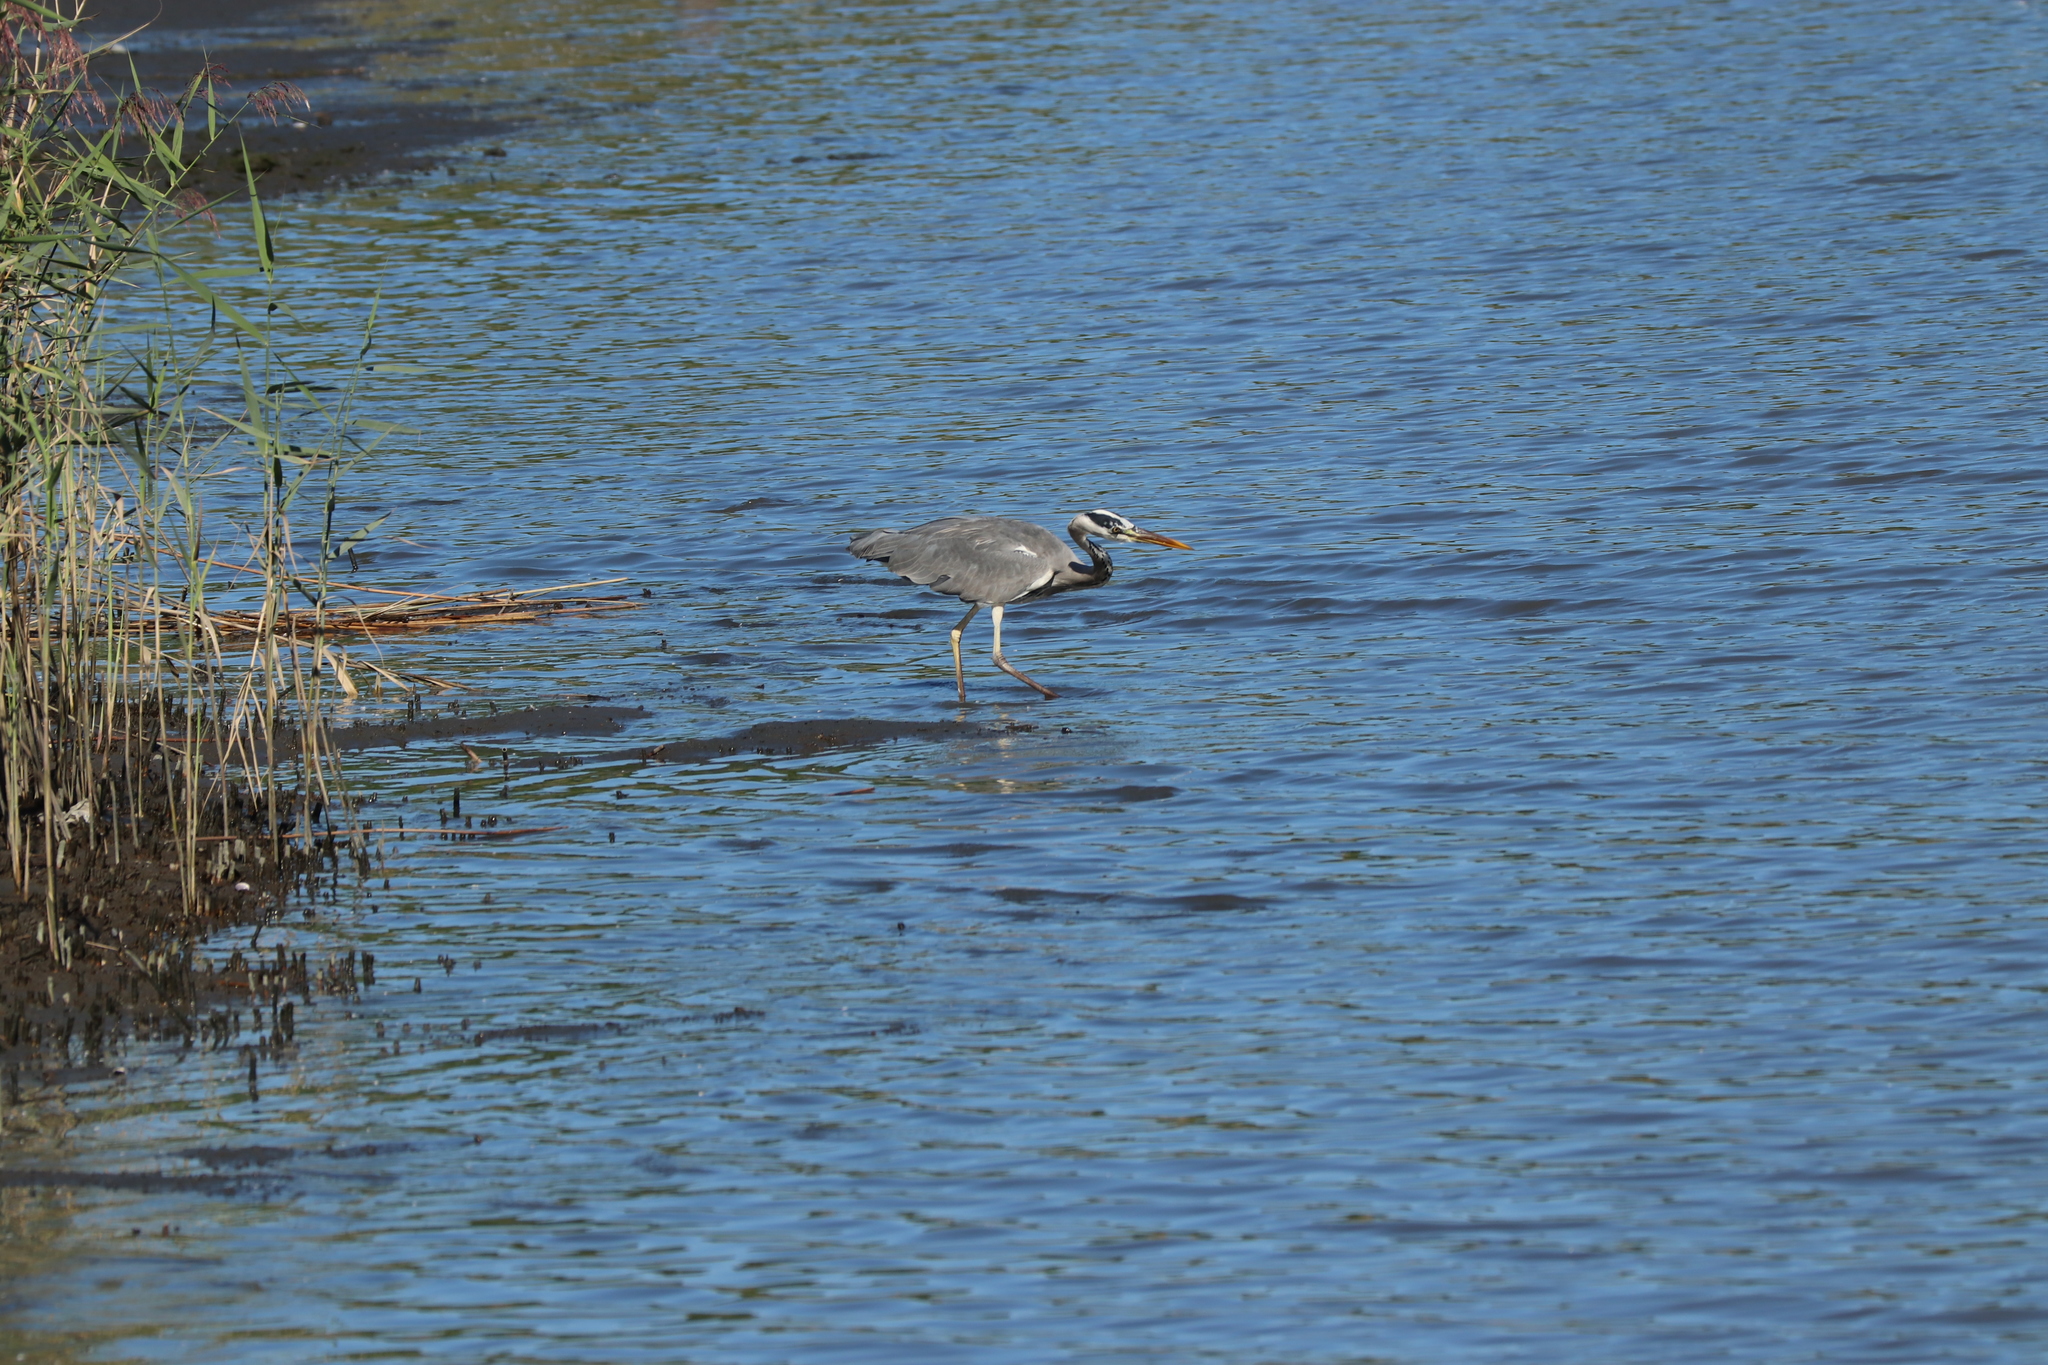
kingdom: Animalia
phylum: Chordata
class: Aves
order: Pelecaniformes
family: Ardeidae
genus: Ardea
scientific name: Ardea cinerea
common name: Grey heron
